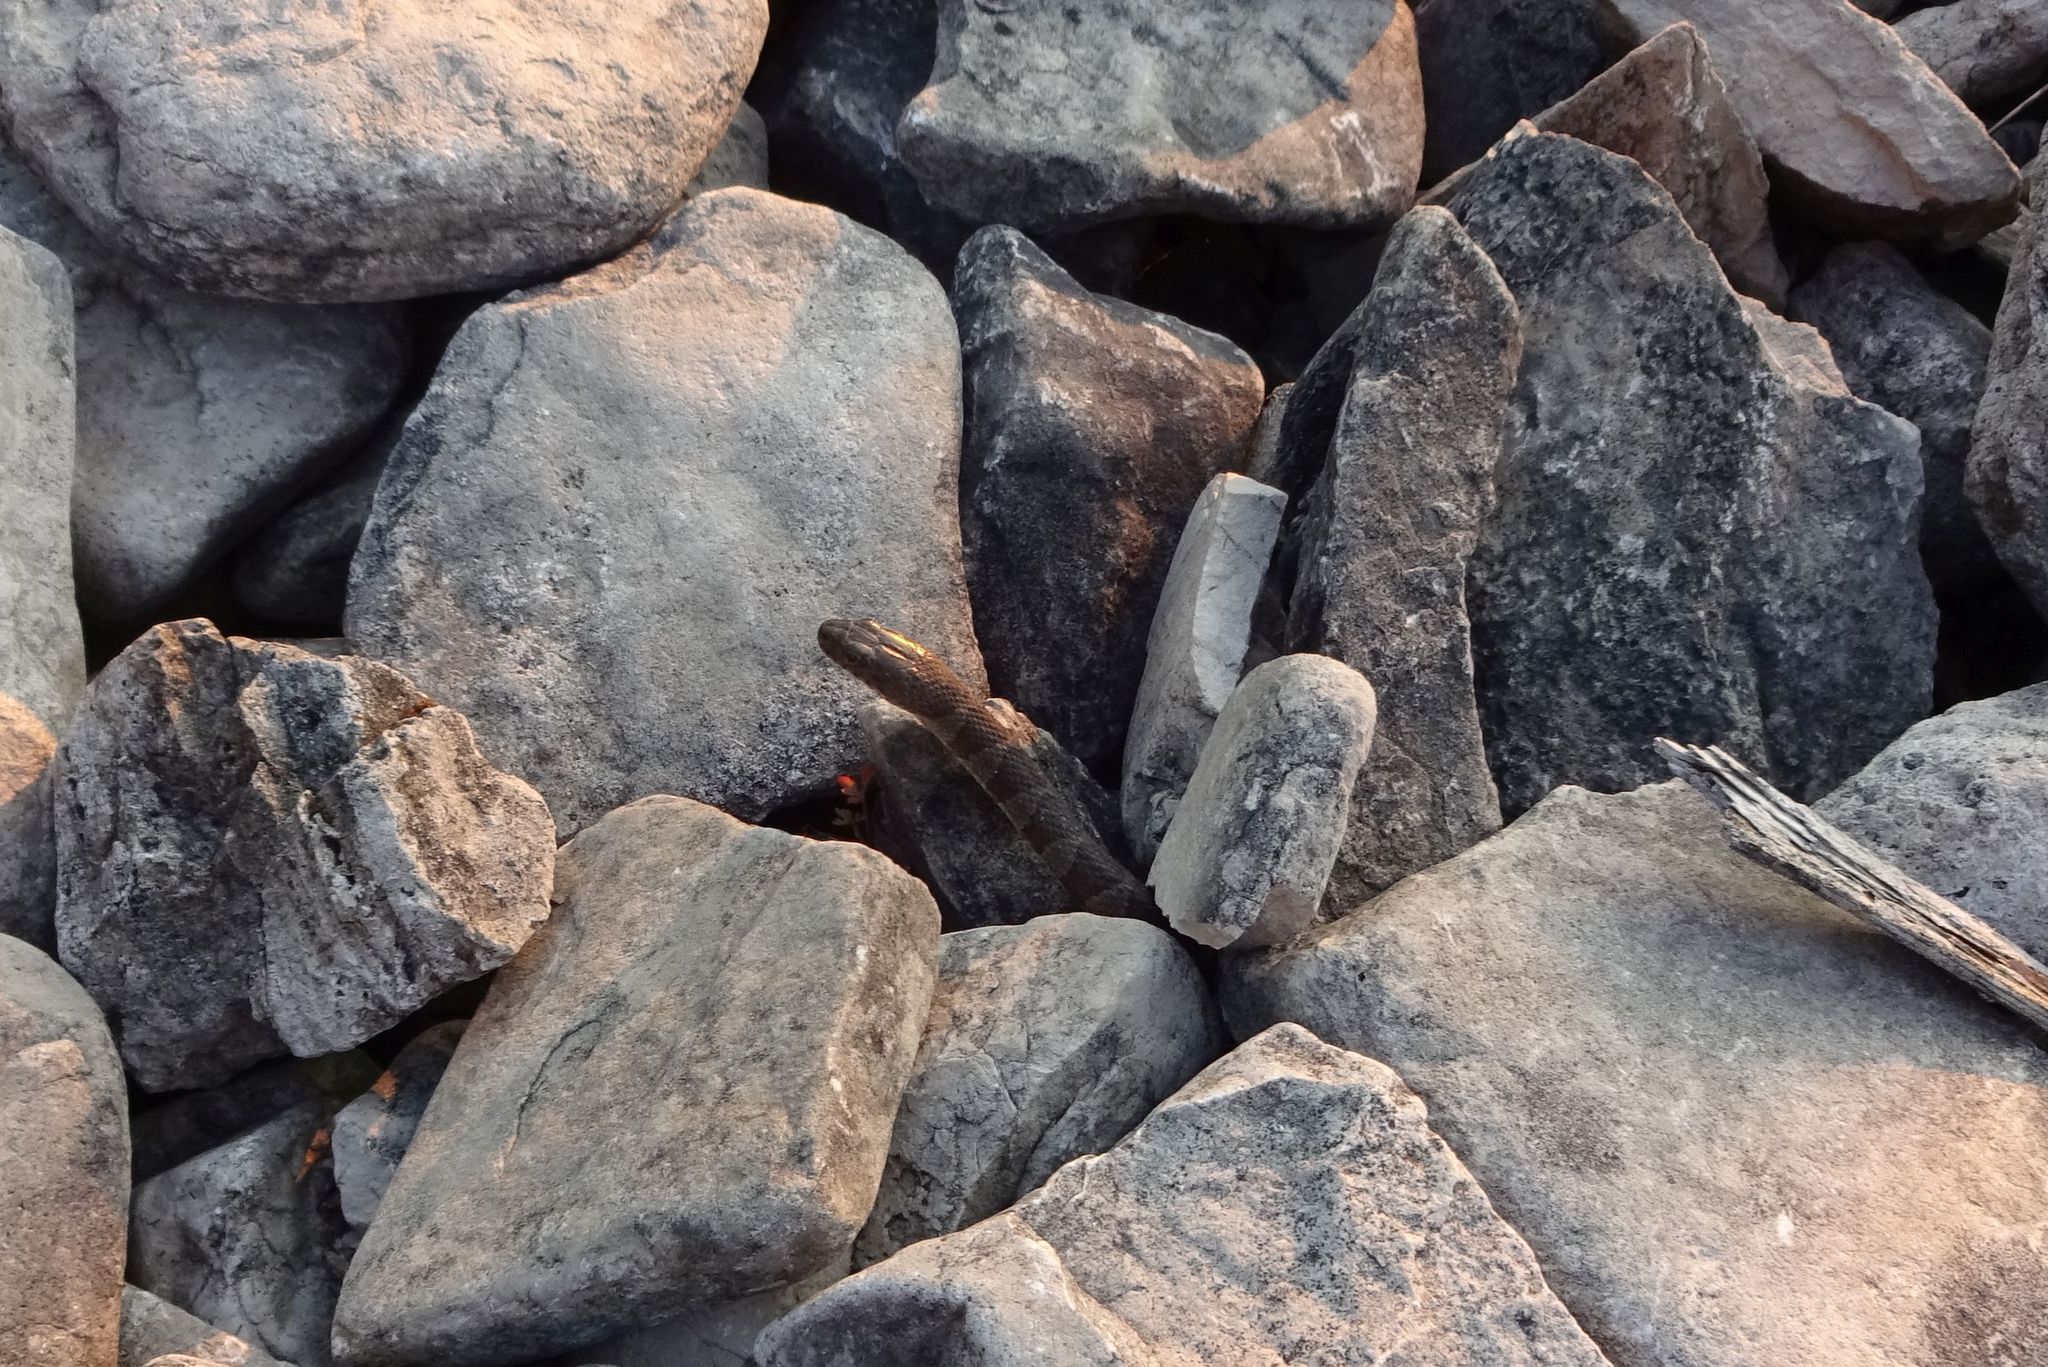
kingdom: Animalia
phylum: Chordata
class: Squamata
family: Colubridae
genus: Nerodia
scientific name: Nerodia sipedon
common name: Northern water snake
